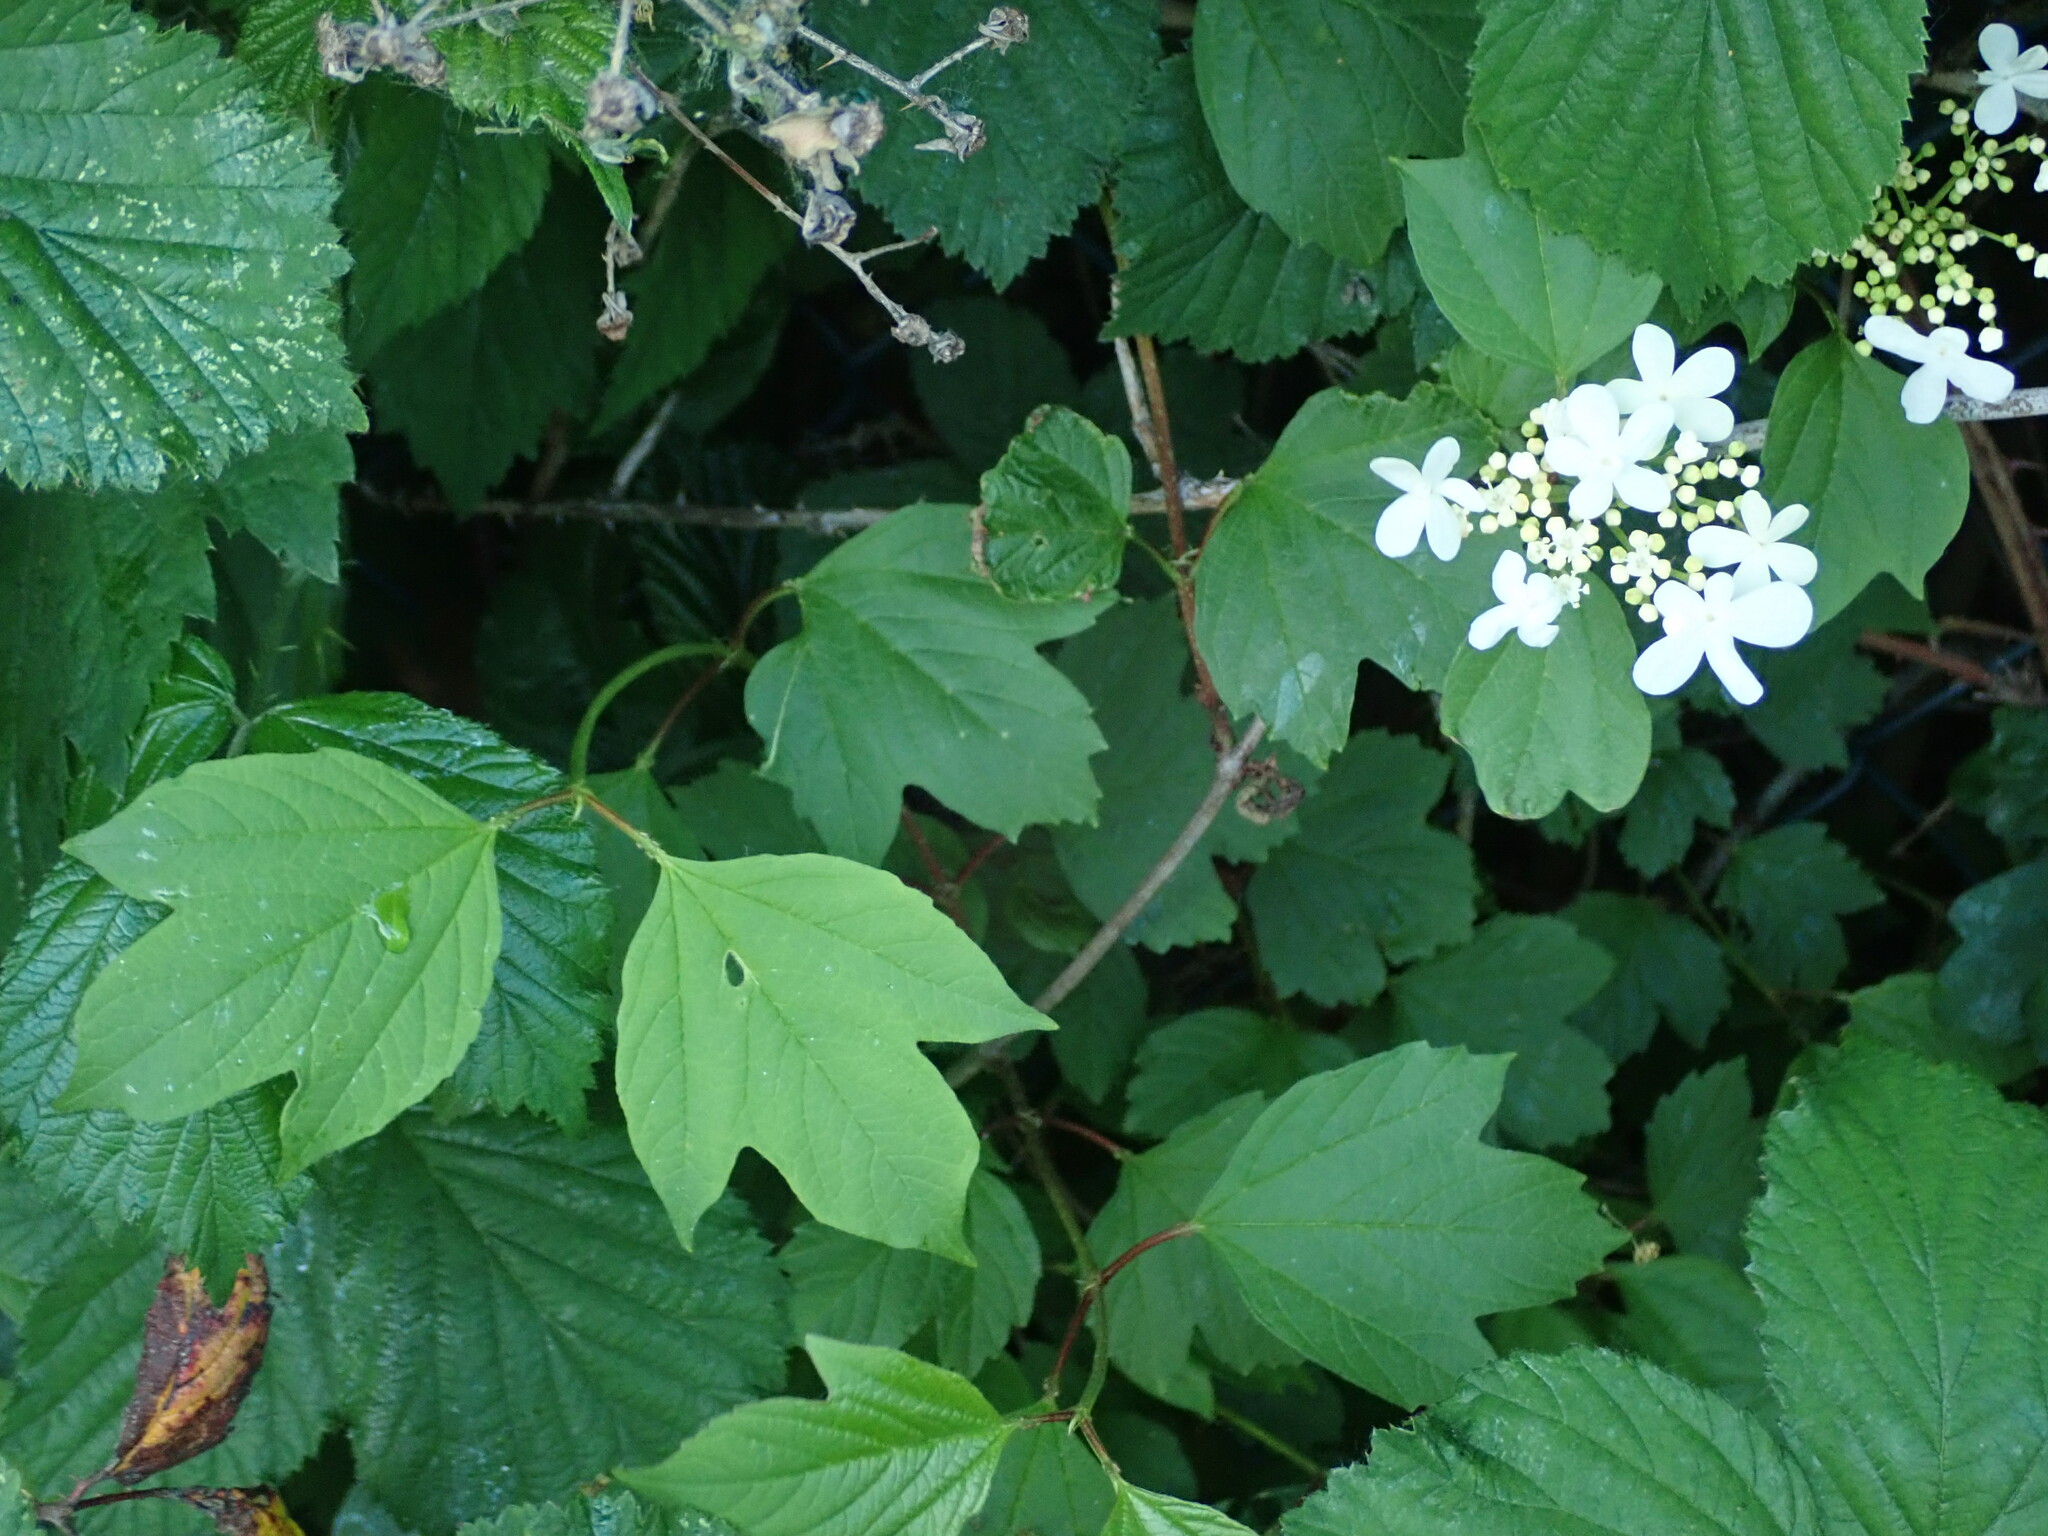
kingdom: Plantae
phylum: Tracheophyta
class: Magnoliopsida
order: Dipsacales
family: Viburnaceae
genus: Viburnum
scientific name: Viburnum opulus
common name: Guelder-rose
